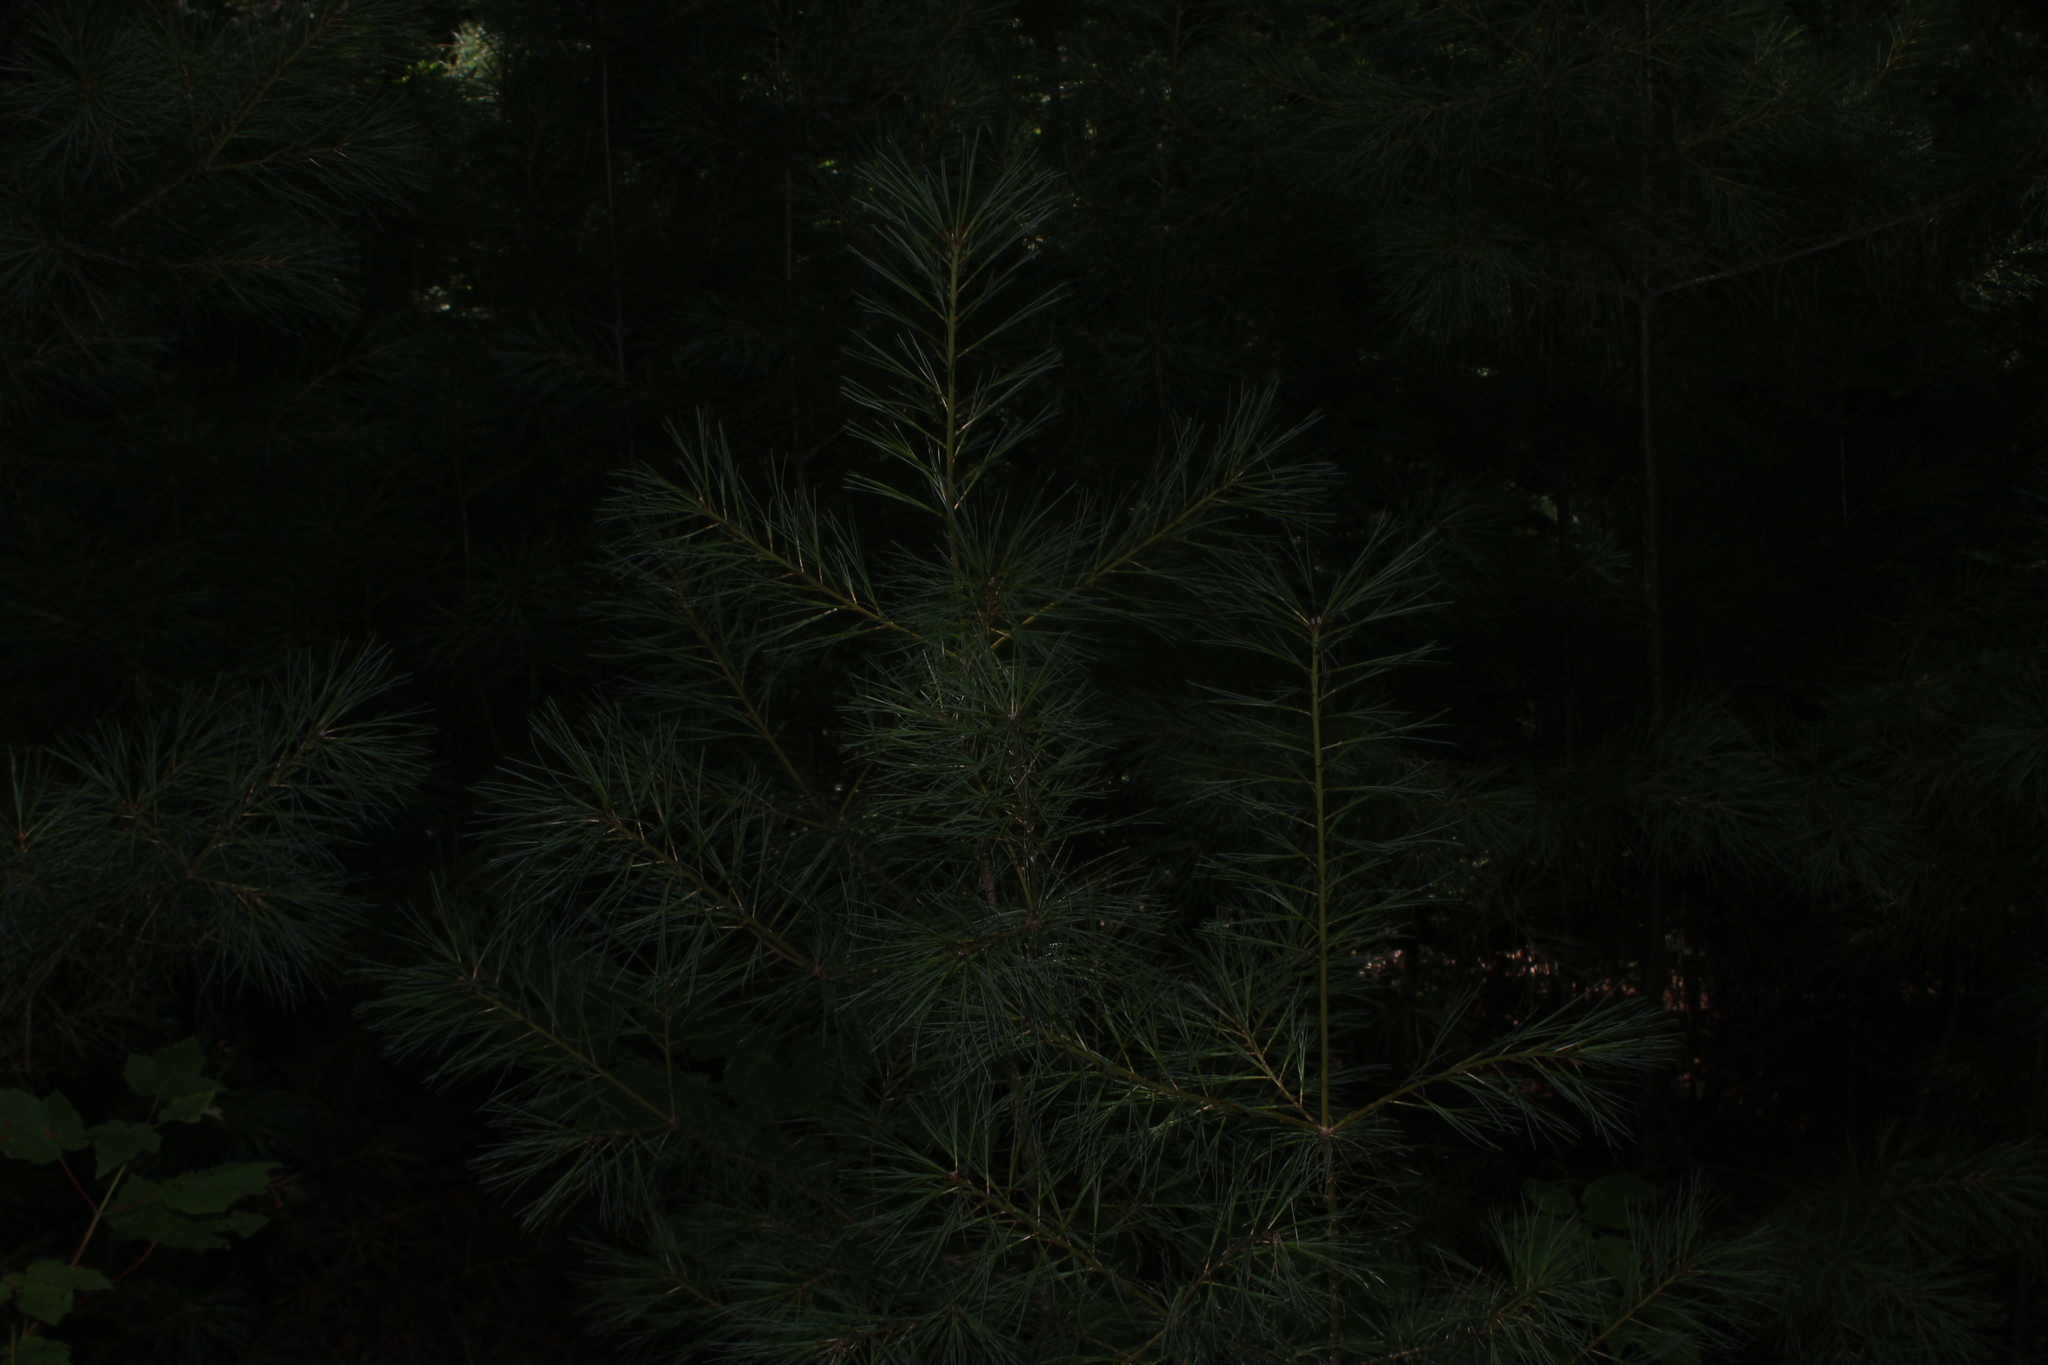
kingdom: Plantae
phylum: Tracheophyta
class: Pinopsida
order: Pinales
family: Pinaceae
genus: Pinus
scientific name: Pinus strobus
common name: Weymouth pine
